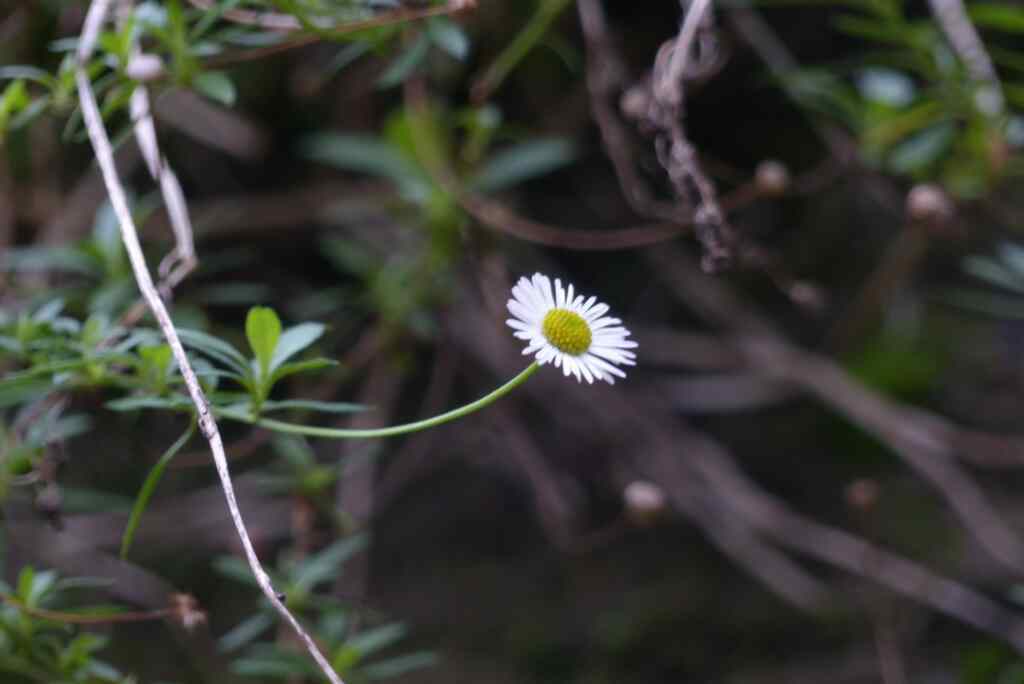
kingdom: Plantae
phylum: Tracheophyta
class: Magnoliopsida
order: Asterales
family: Asteraceae
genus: Erigeron
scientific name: Erigeron karvinskianus
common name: Mexican fleabane
